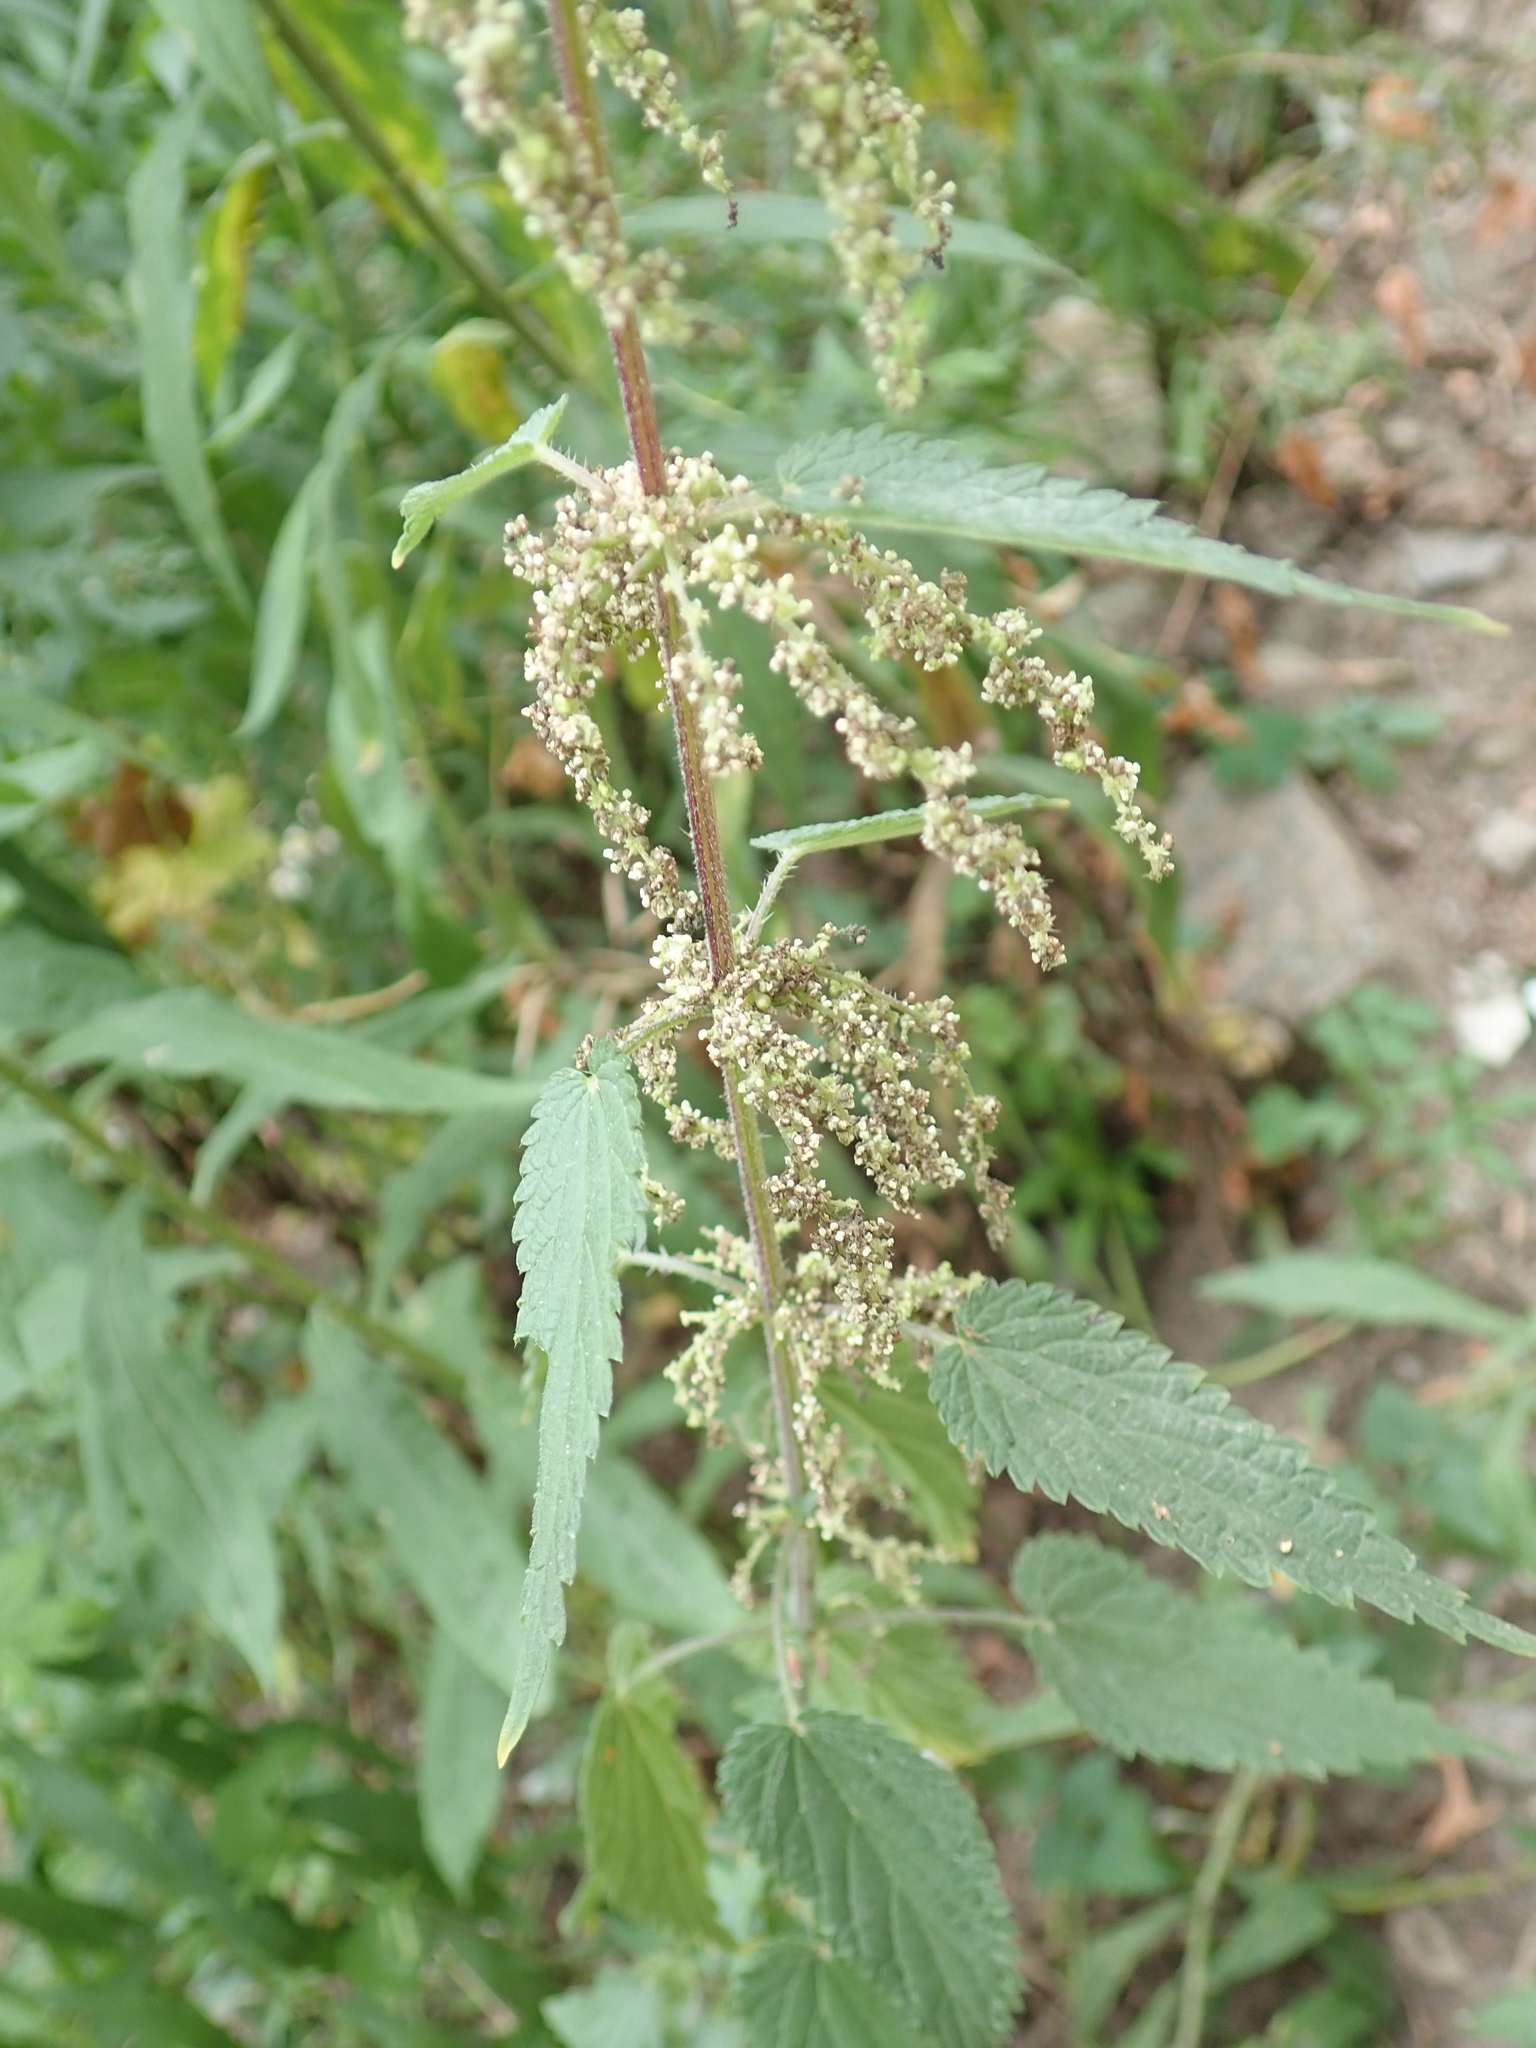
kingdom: Plantae
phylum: Tracheophyta
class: Magnoliopsida
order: Rosales
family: Urticaceae
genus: Urtica
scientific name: Urtica dioica
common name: Common nettle
